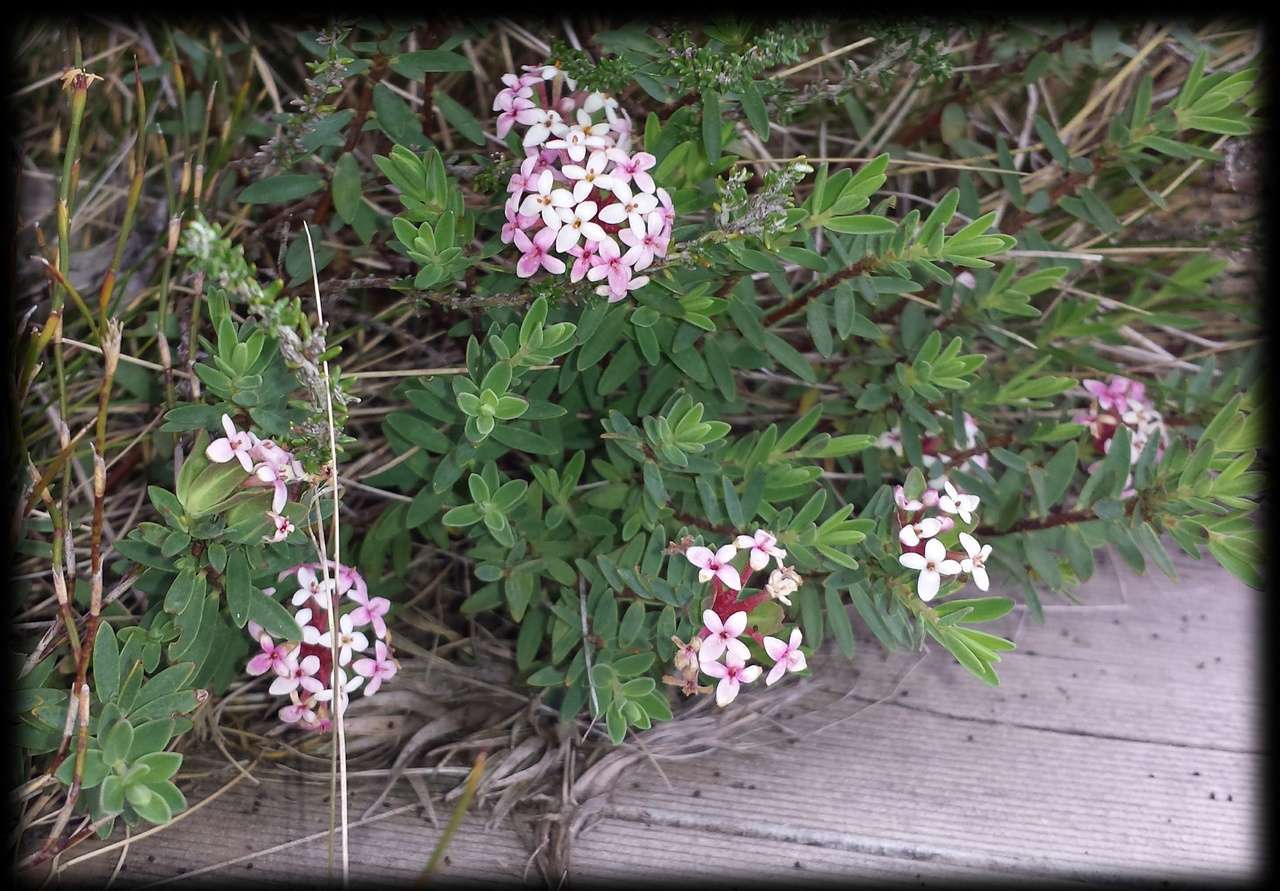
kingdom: Plantae
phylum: Tracheophyta
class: Magnoliopsida
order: Malvales
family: Thymelaeaceae
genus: Pimelea
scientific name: Pimelea alpina
